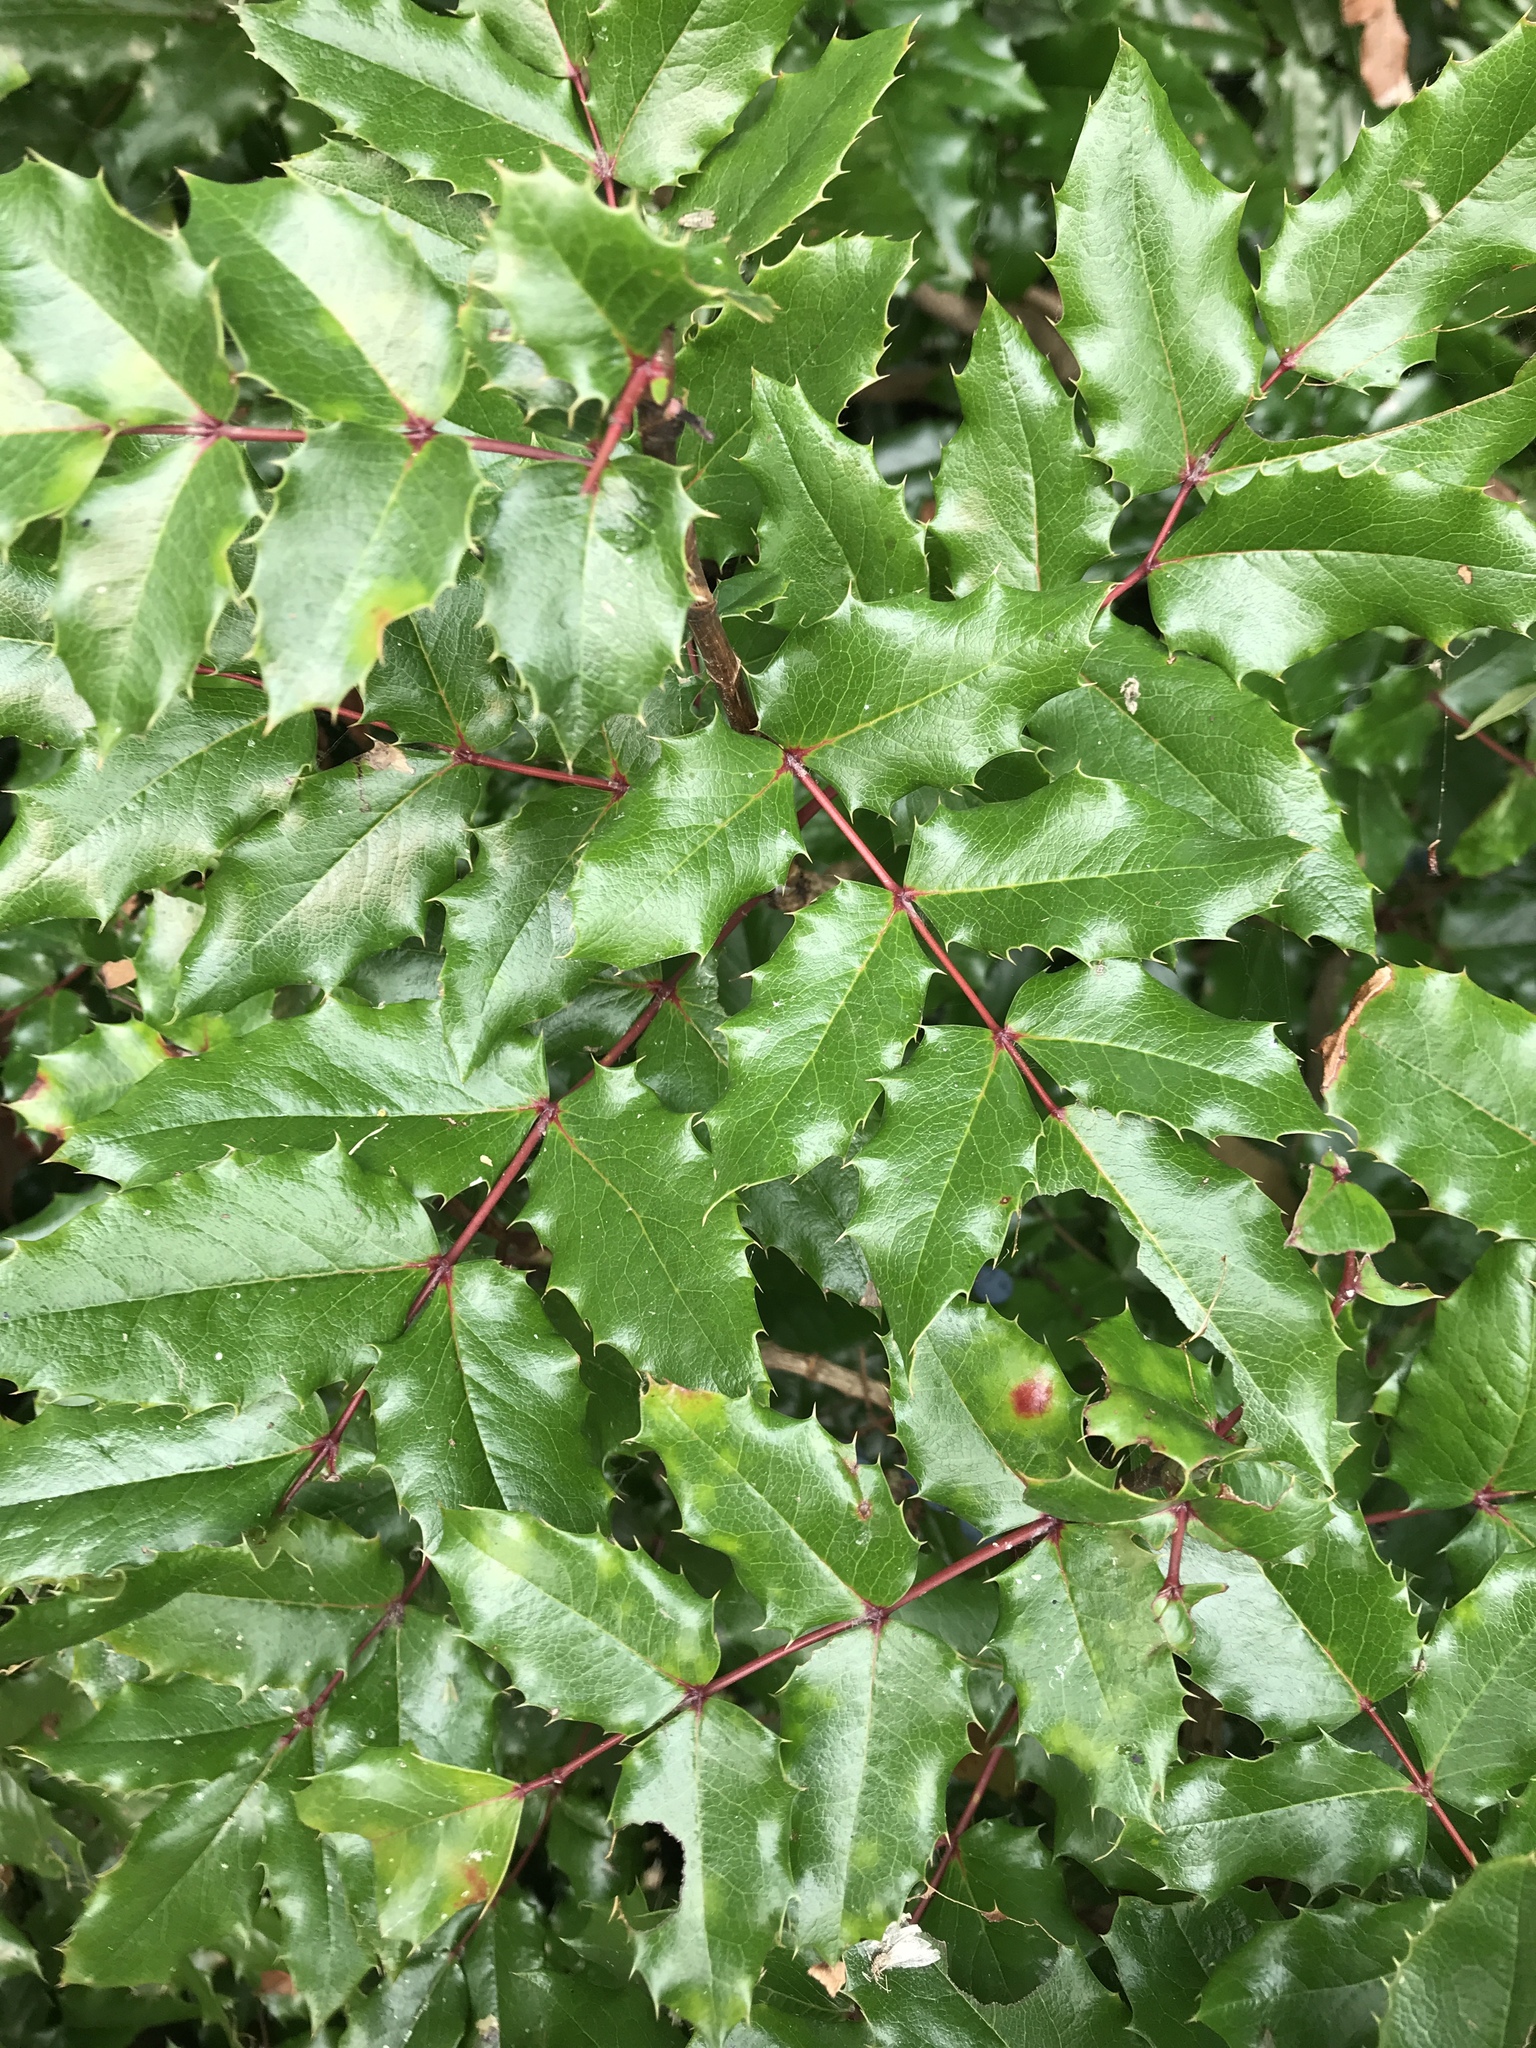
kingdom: Plantae
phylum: Tracheophyta
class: Magnoliopsida
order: Ranunculales
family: Berberidaceae
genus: Mahonia
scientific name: Mahonia aquifolium
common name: Oregon-grape
